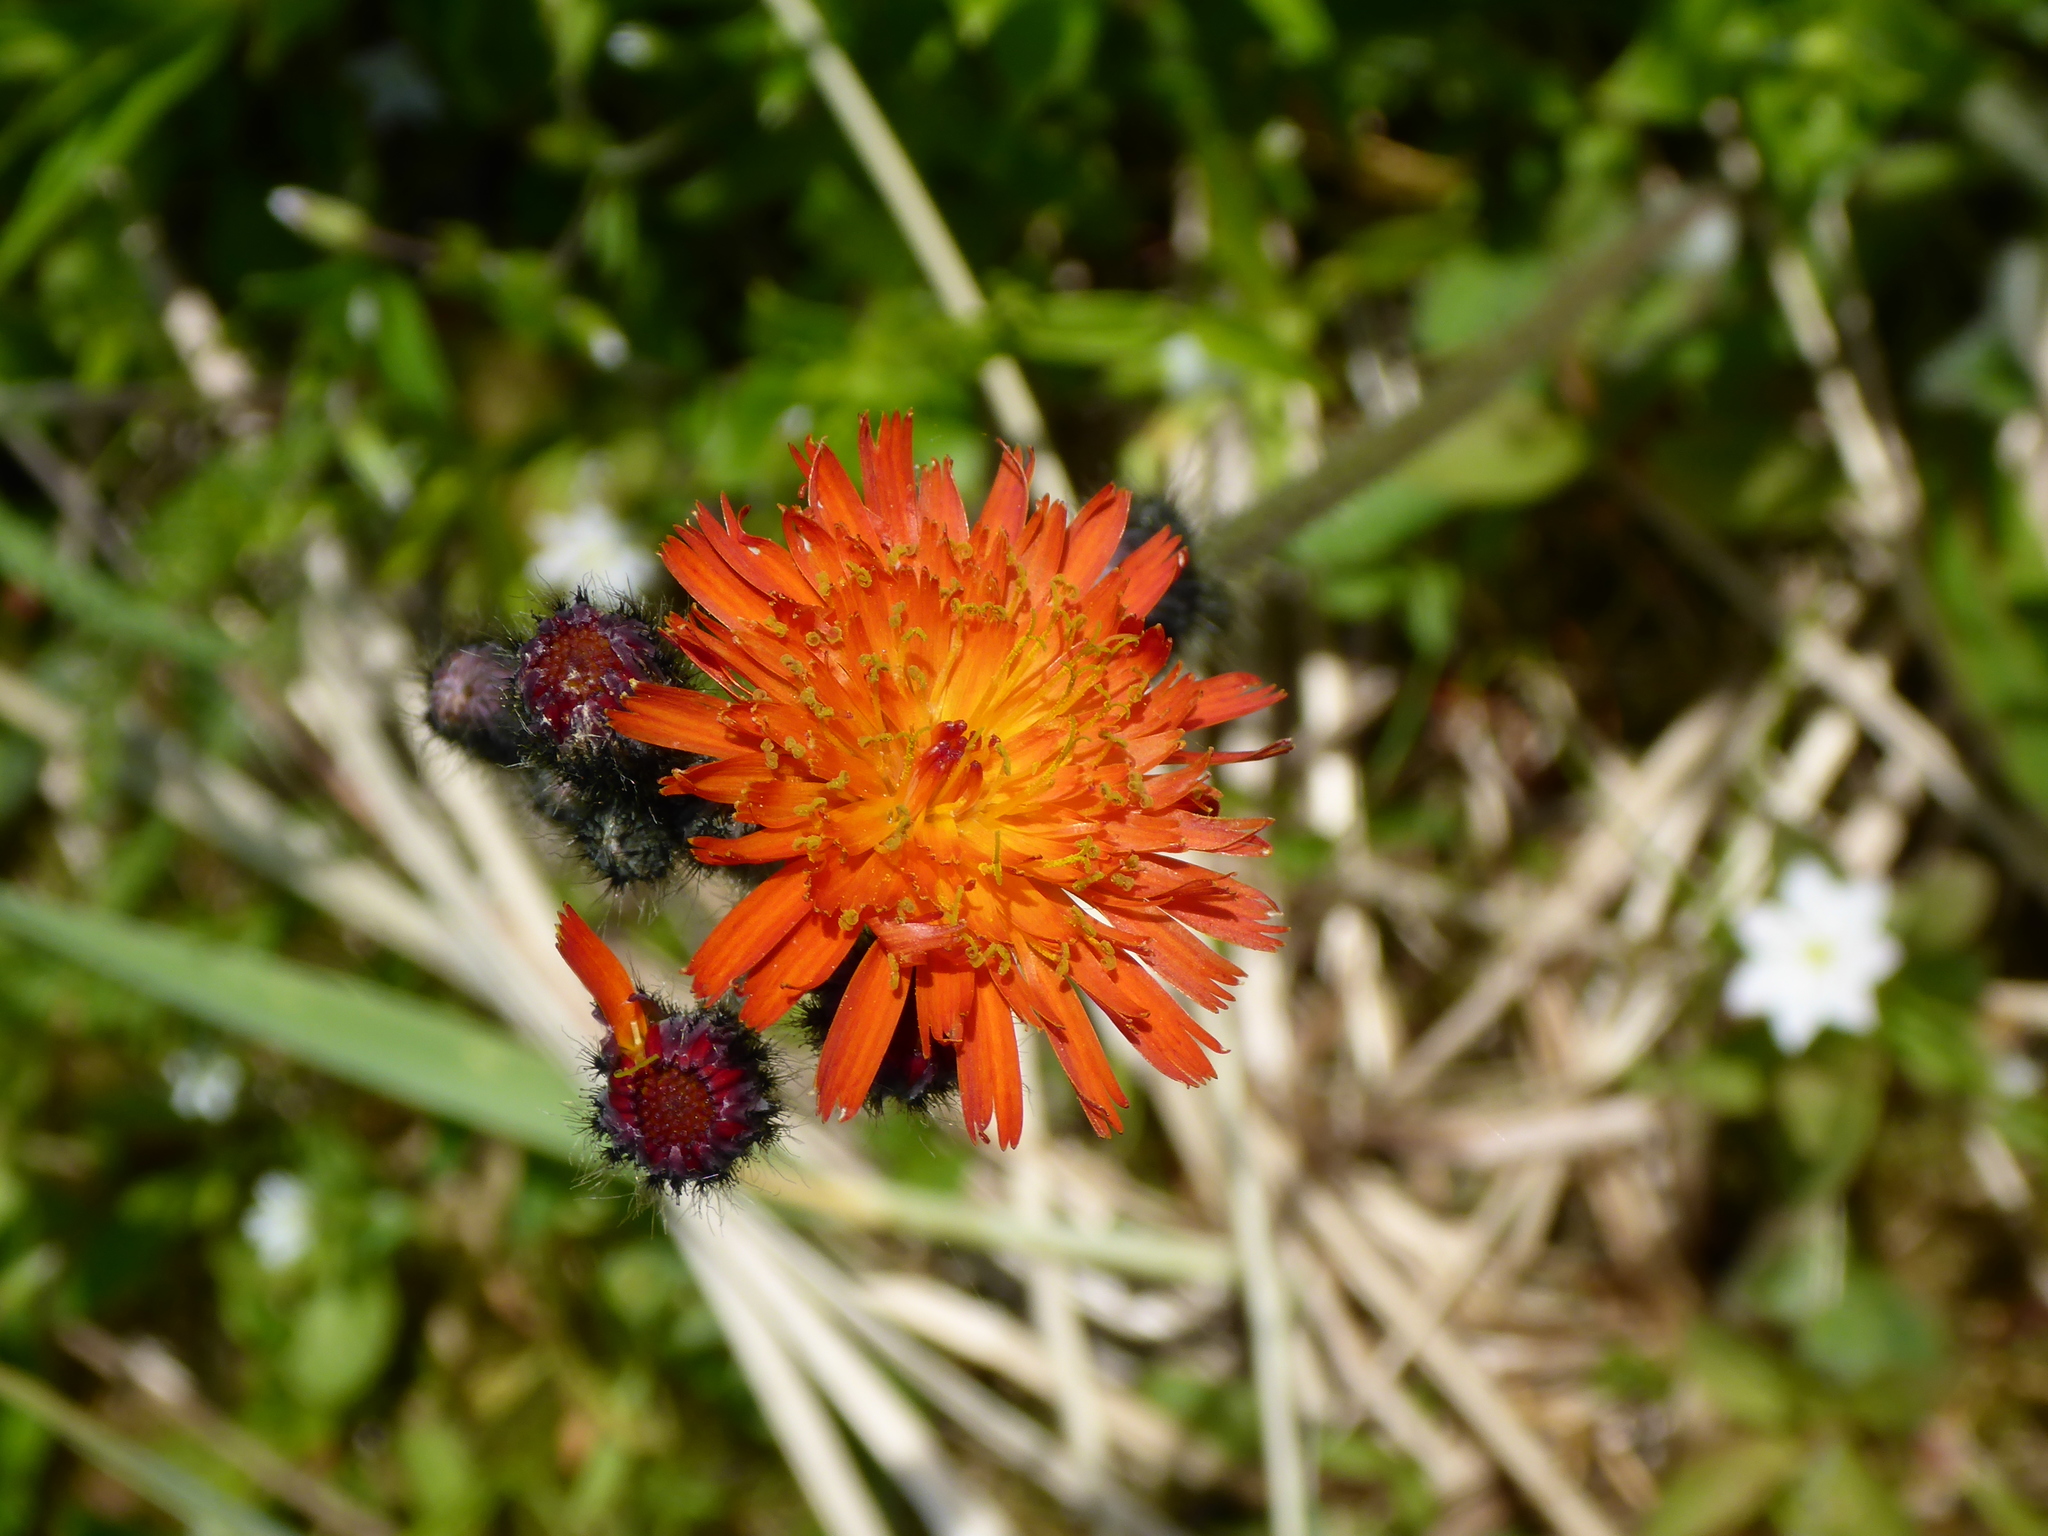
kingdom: Plantae
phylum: Tracheophyta
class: Magnoliopsida
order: Asterales
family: Asteraceae
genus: Pilosella
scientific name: Pilosella aurantiaca
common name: Fox-and-cubs
